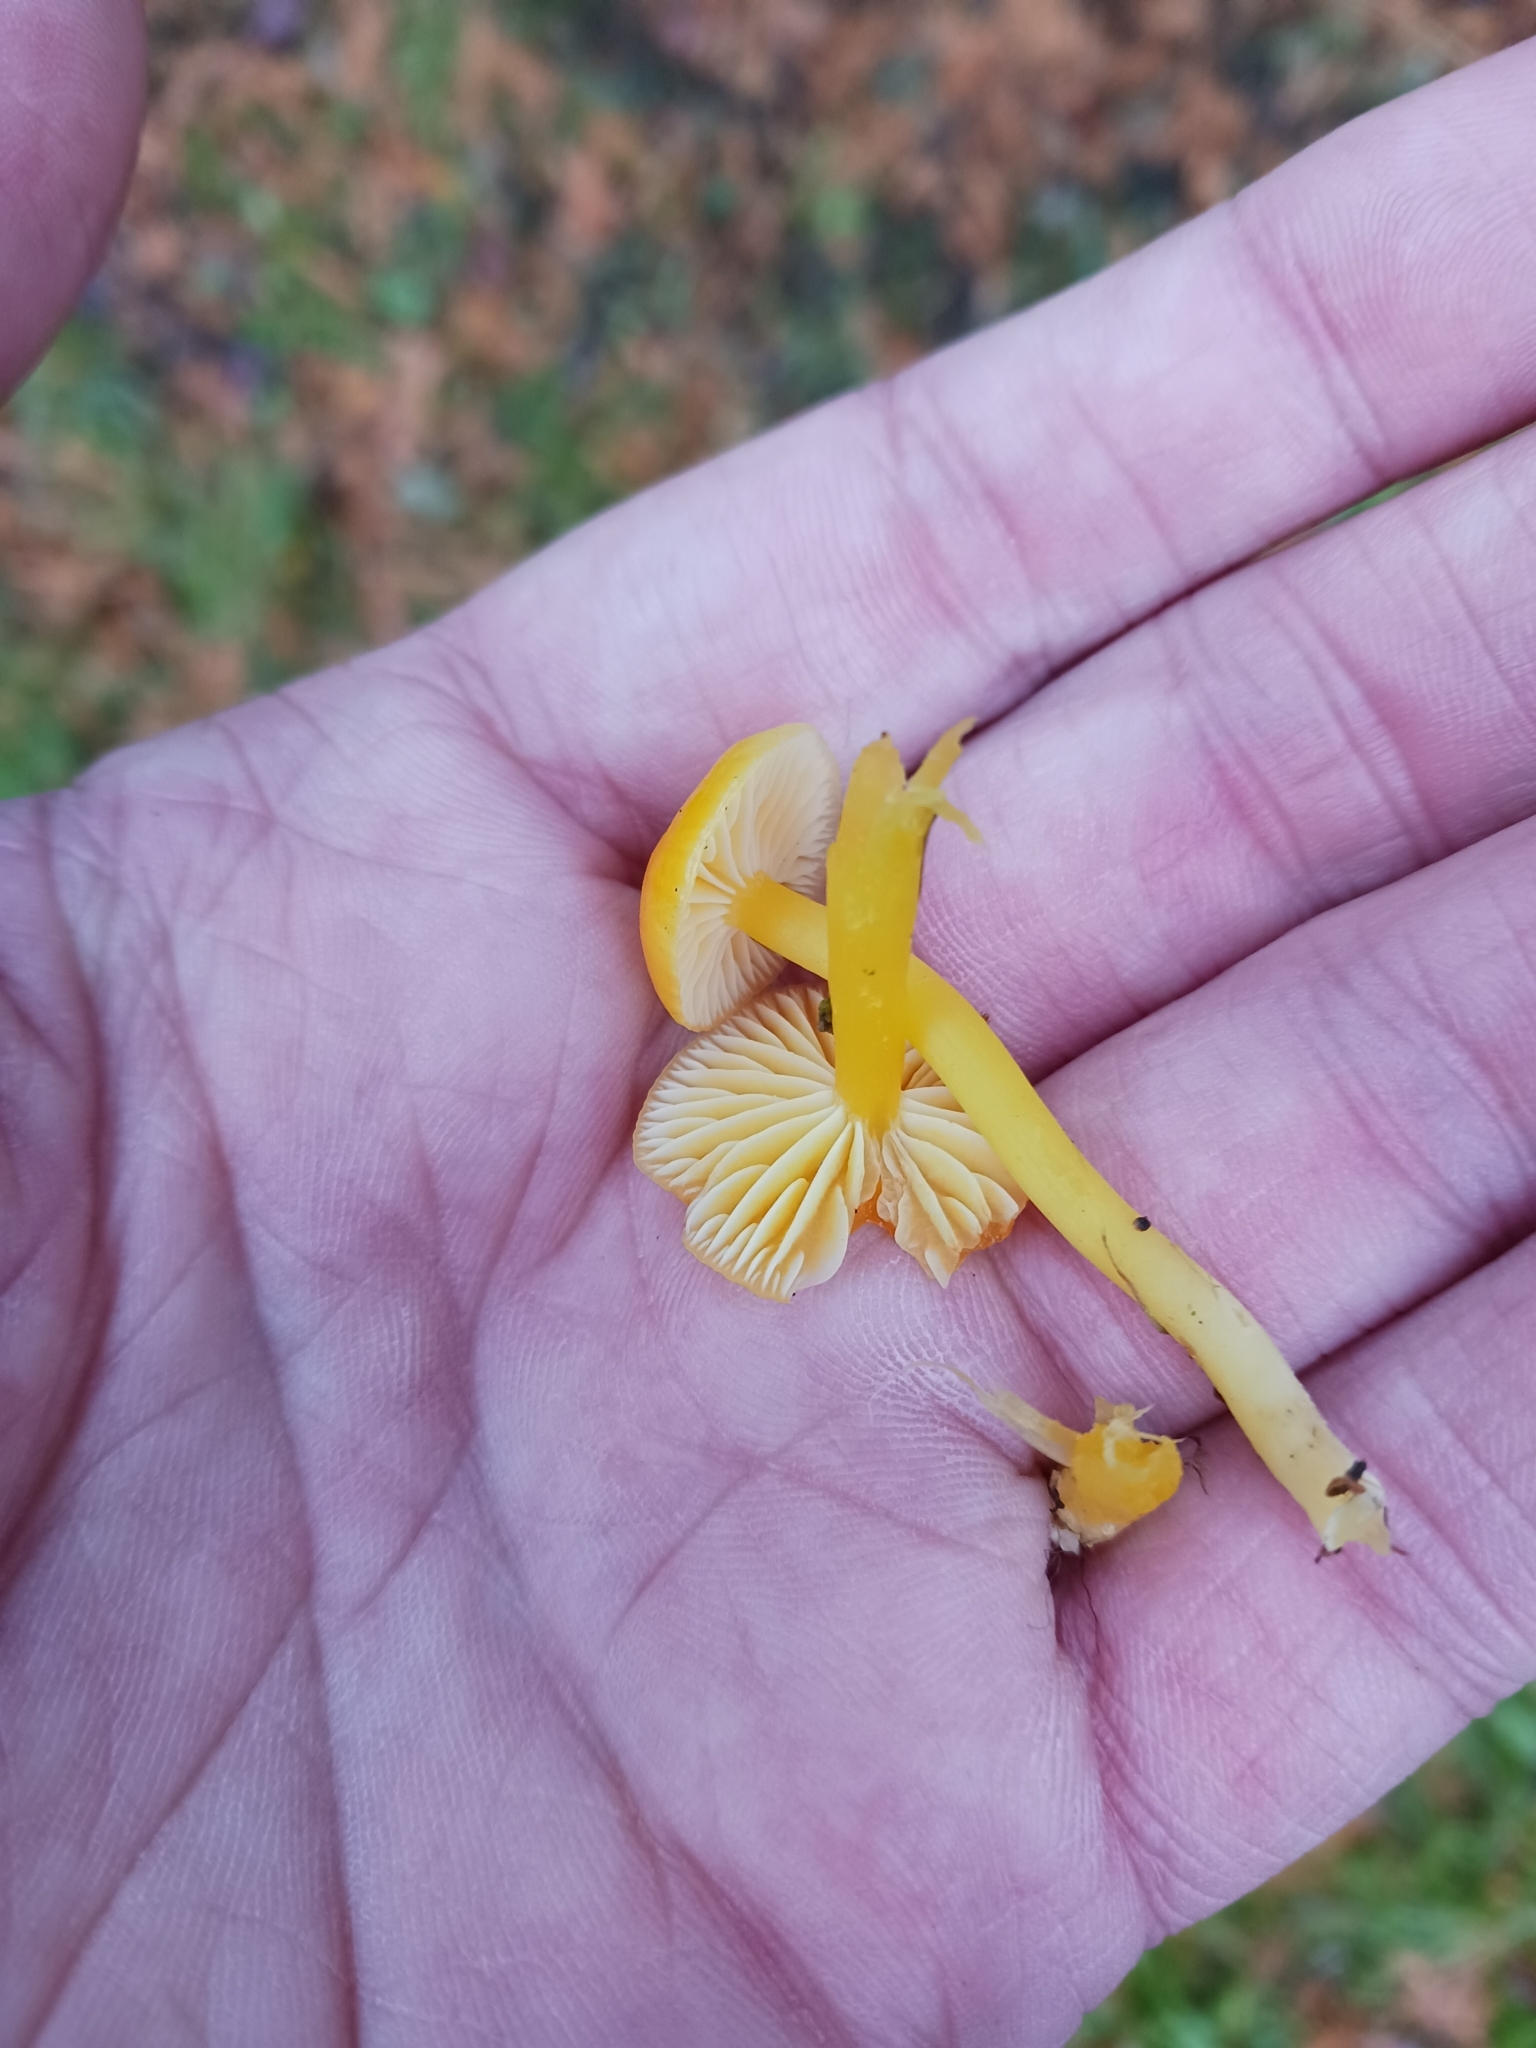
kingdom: Fungi
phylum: Basidiomycota
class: Agaricomycetes
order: Agaricales
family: Hygrophoraceae
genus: Hygrocybe
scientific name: Hygrocybe ceracea
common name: Butter waxcap
